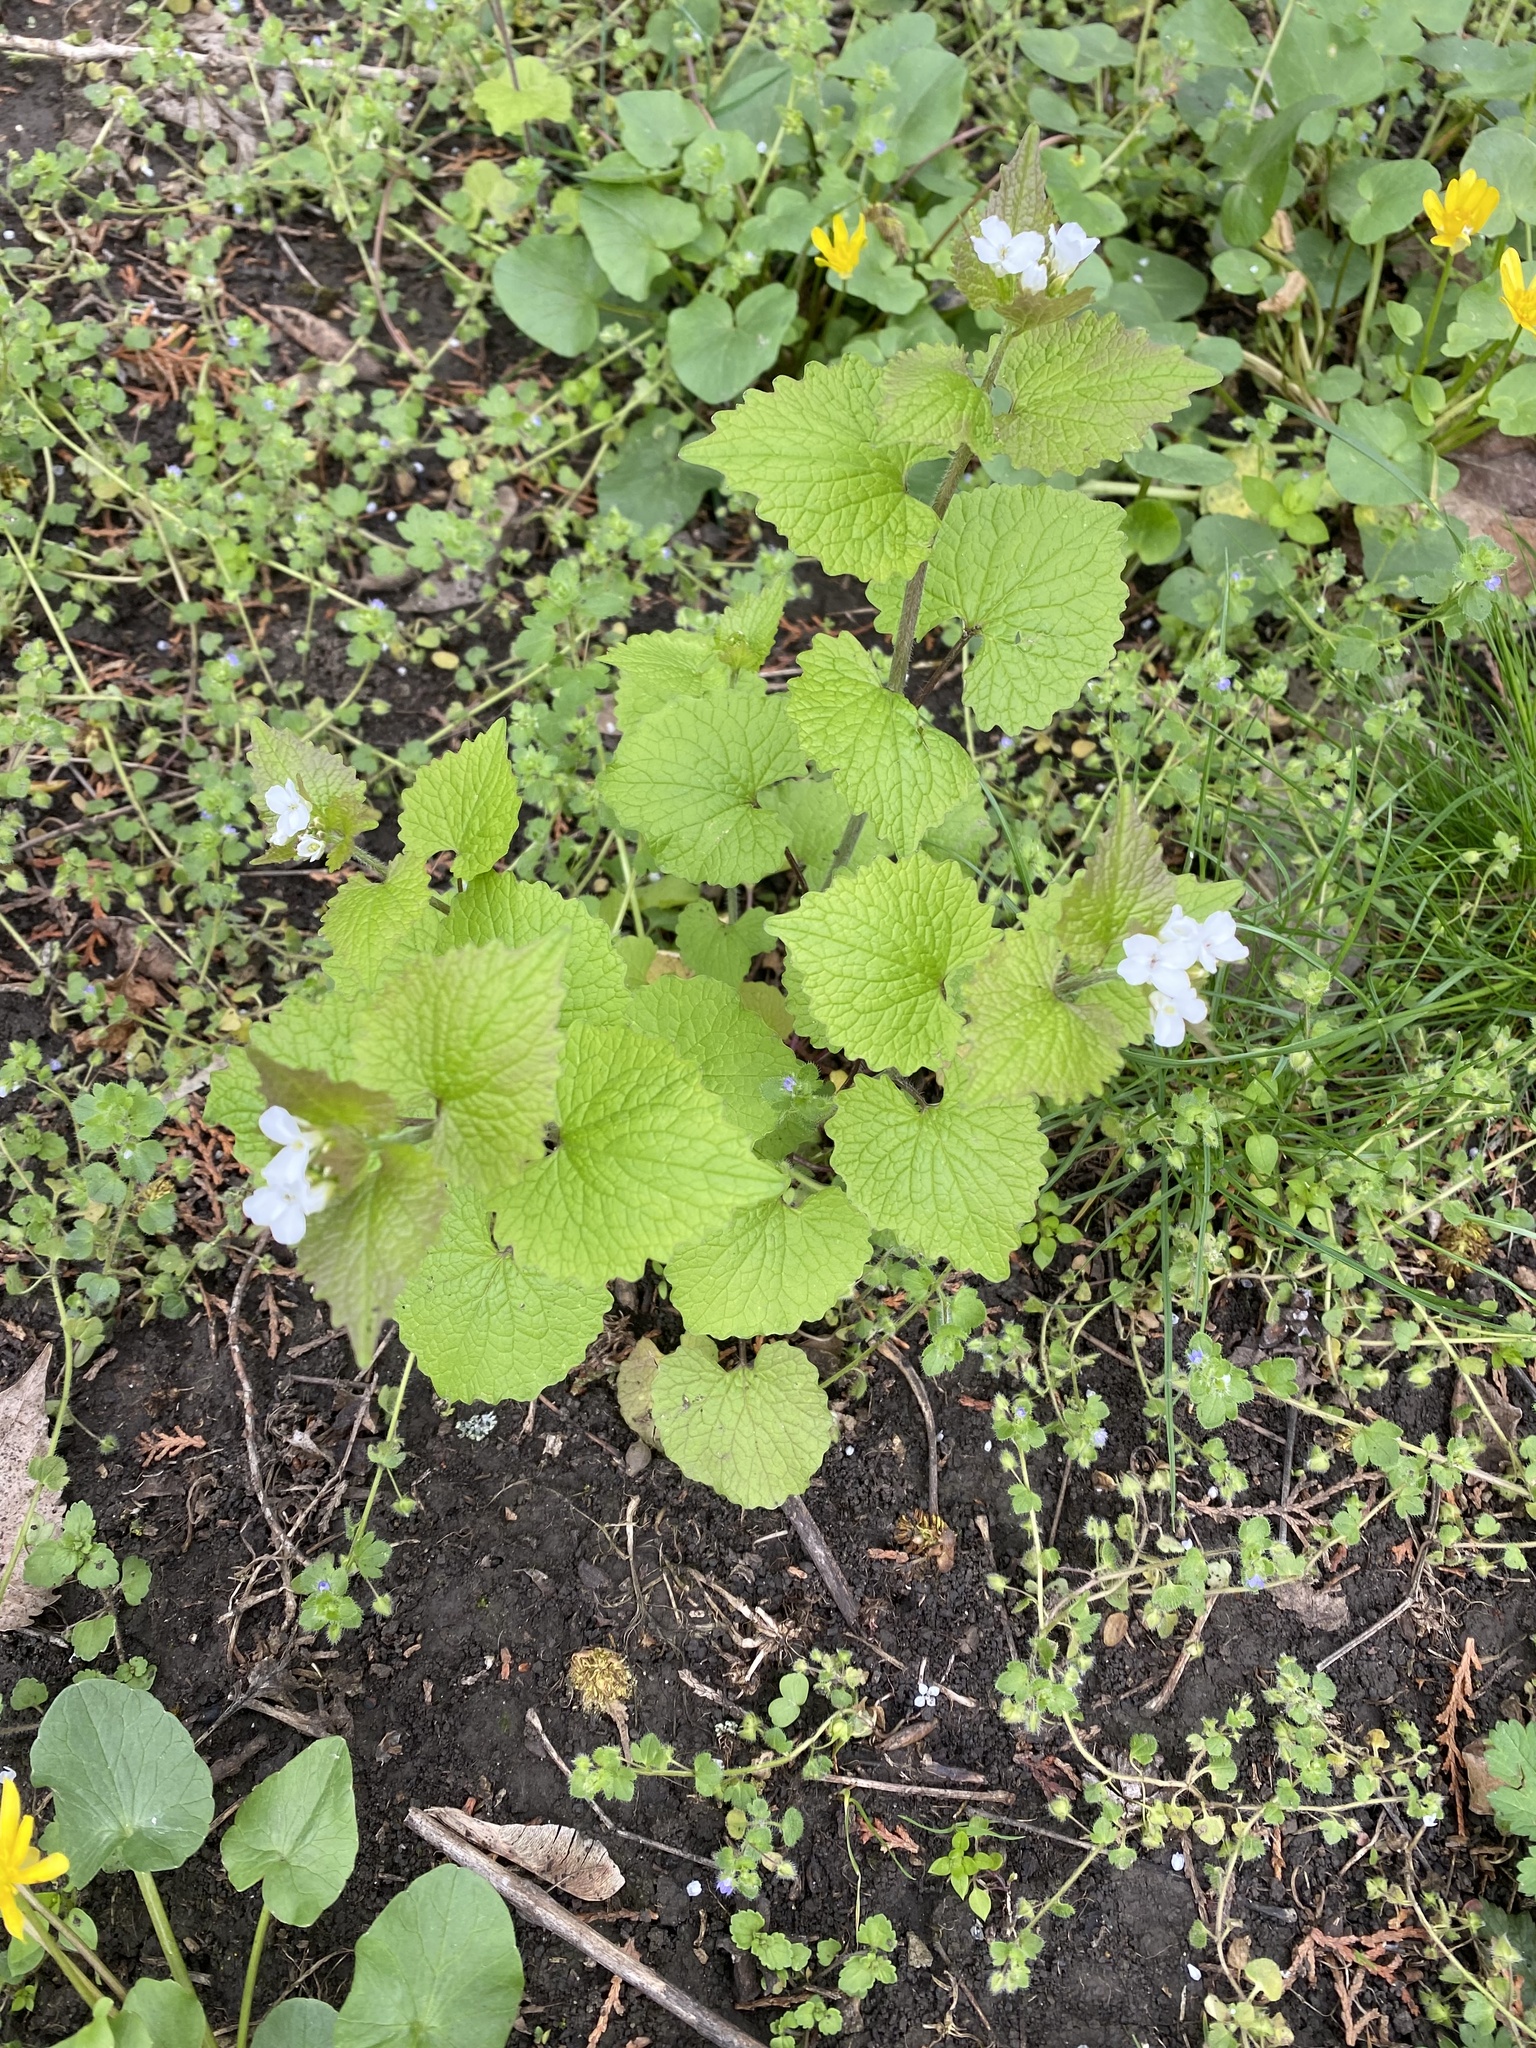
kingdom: Plantae
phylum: Tracheophyta
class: Magnoliopsida
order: Brassicales
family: Brassicaceae
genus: Alliaria
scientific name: Alliaria petiolata
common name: Garlic mustard
